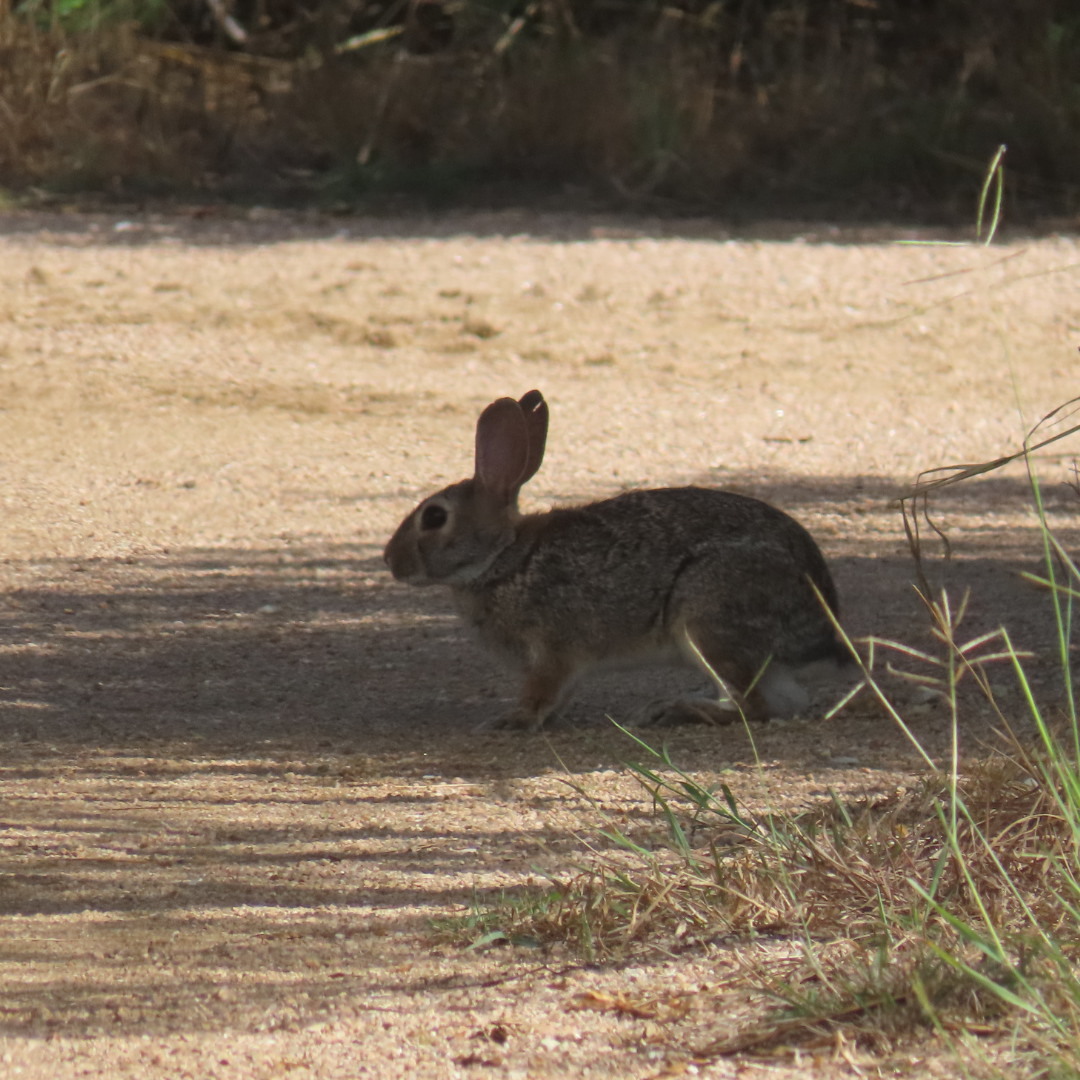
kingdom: Animalia
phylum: Chordata
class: Mammalia
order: Lagomorpha
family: Leporidae
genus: Sylvilagus
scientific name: Sylvilagus floridanus
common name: Eastern cottontail
